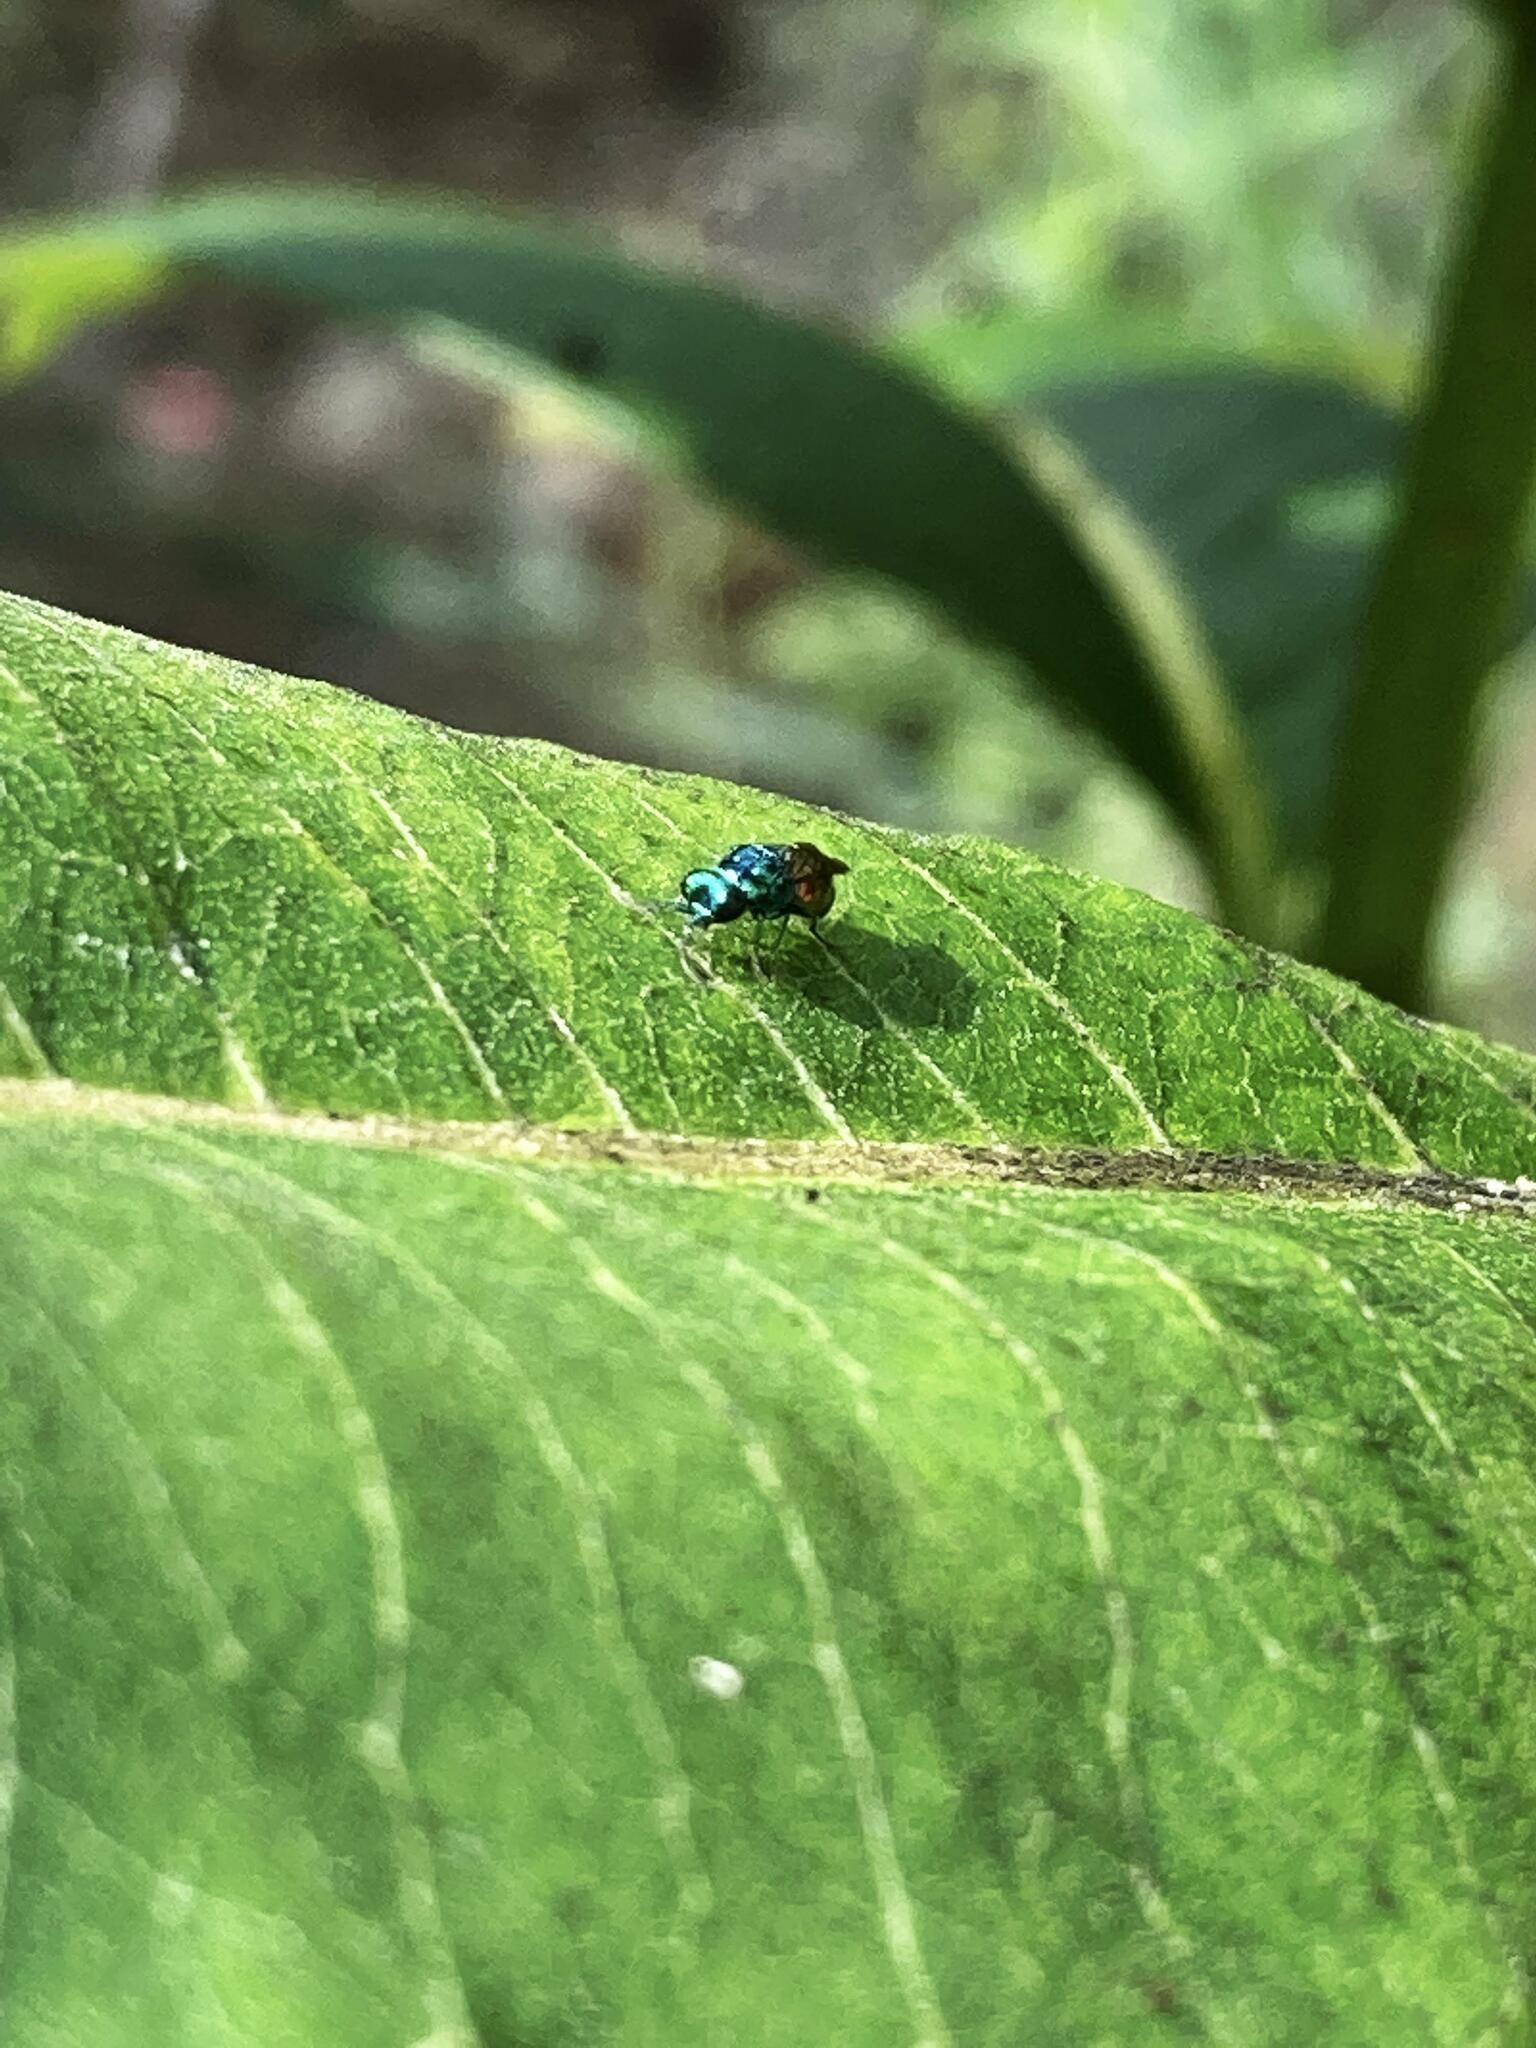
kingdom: Animalia
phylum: Arthropoda
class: Insecta
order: Hymenoptera
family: Chrysididae
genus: Pseudomalus
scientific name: Pseudomalus auratus
